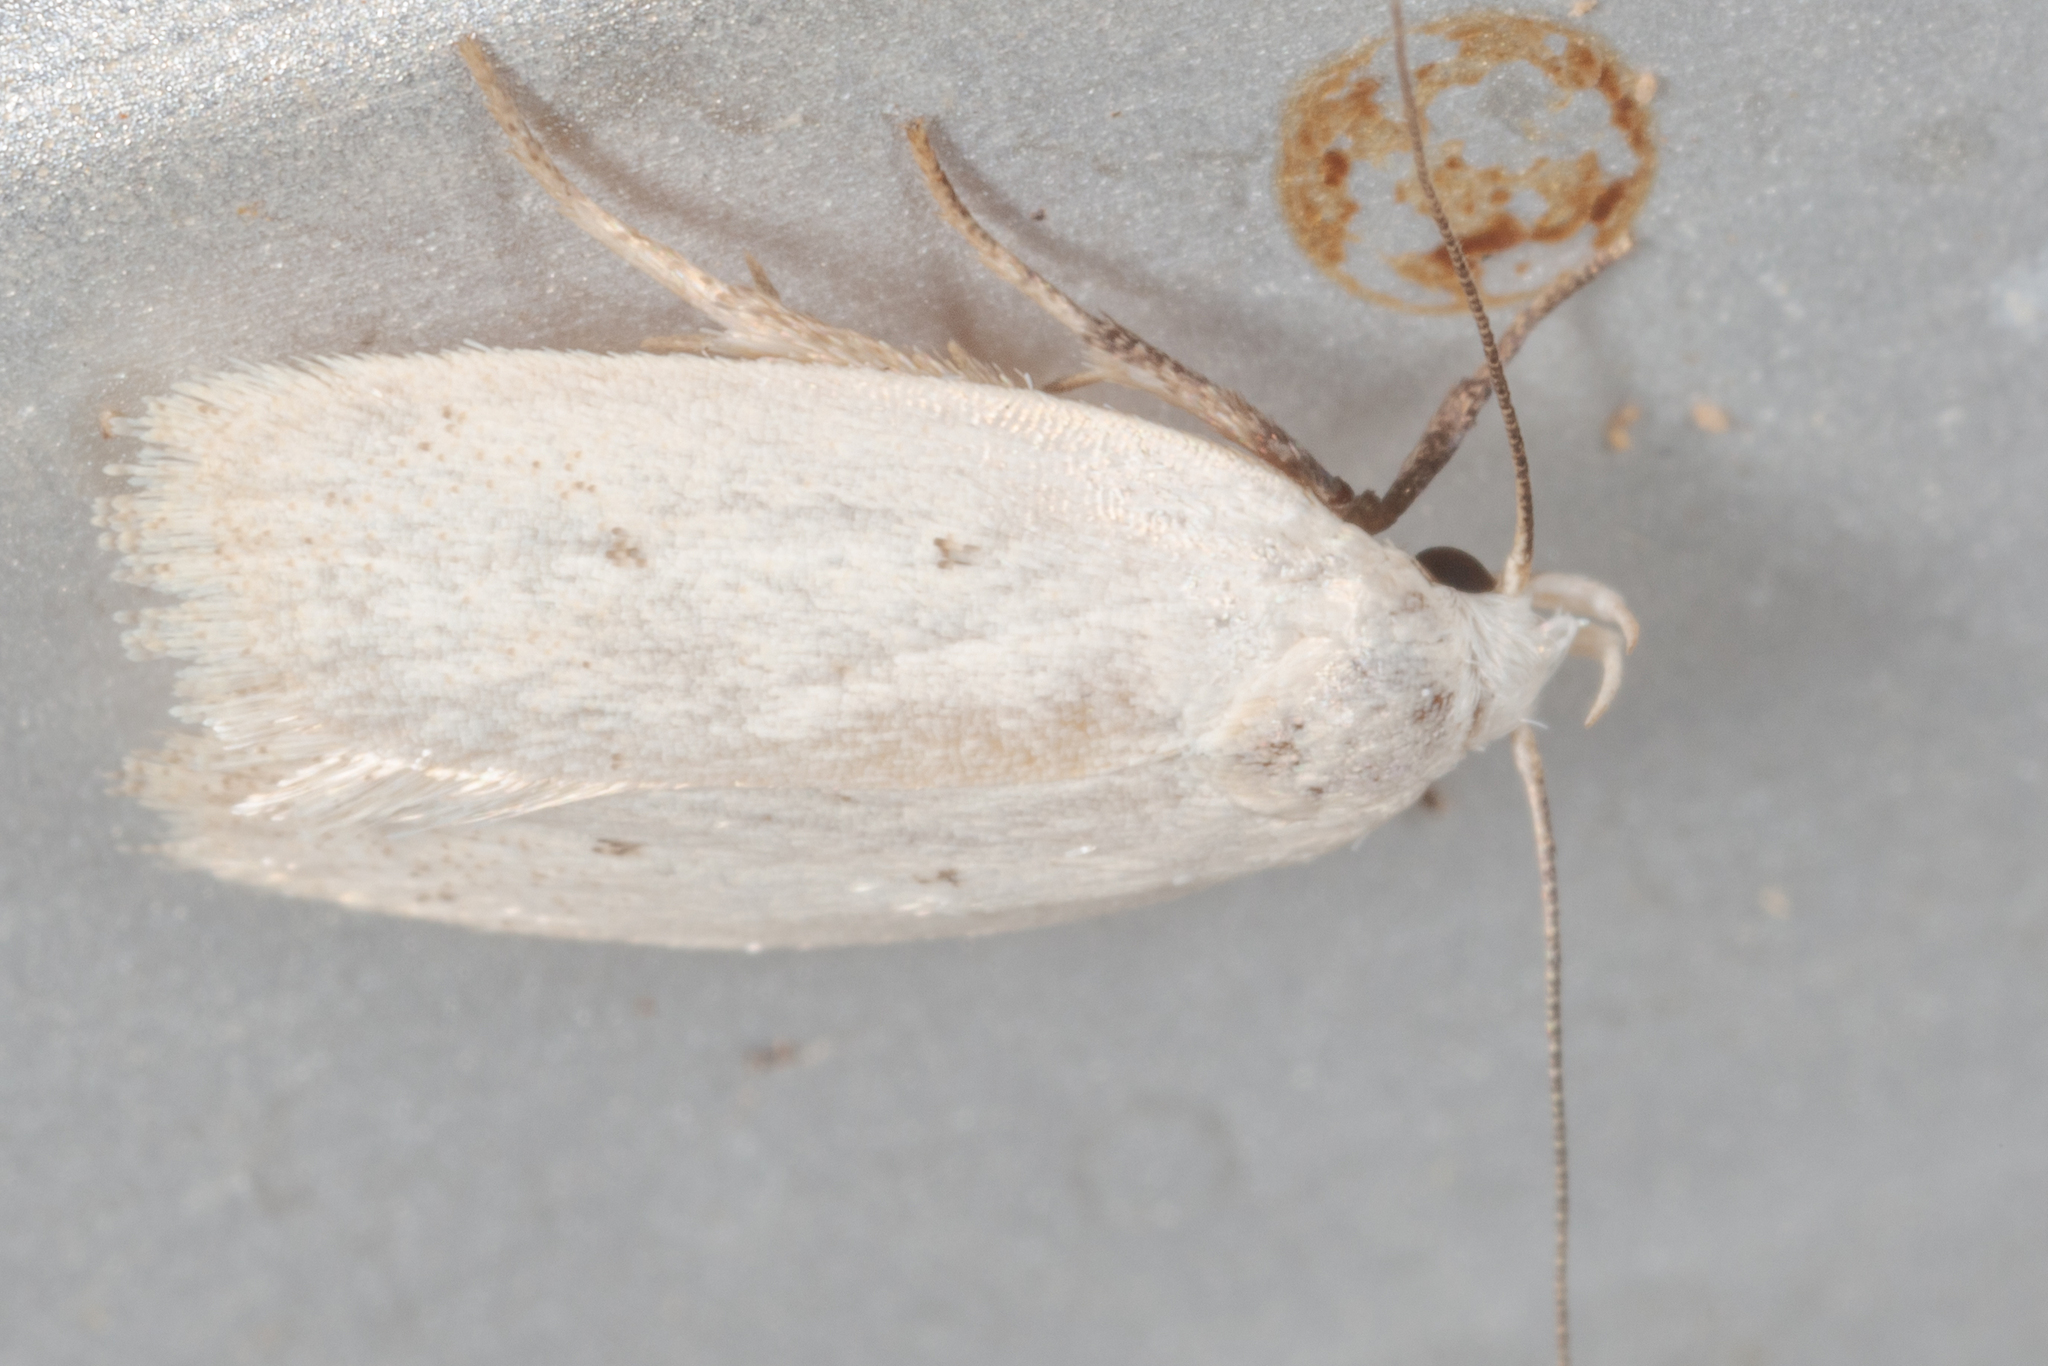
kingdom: Animalia
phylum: Arthropoda
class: Insecta
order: Lepidoptera
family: Oecophoridae
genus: Inga
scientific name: Inga cretacea
